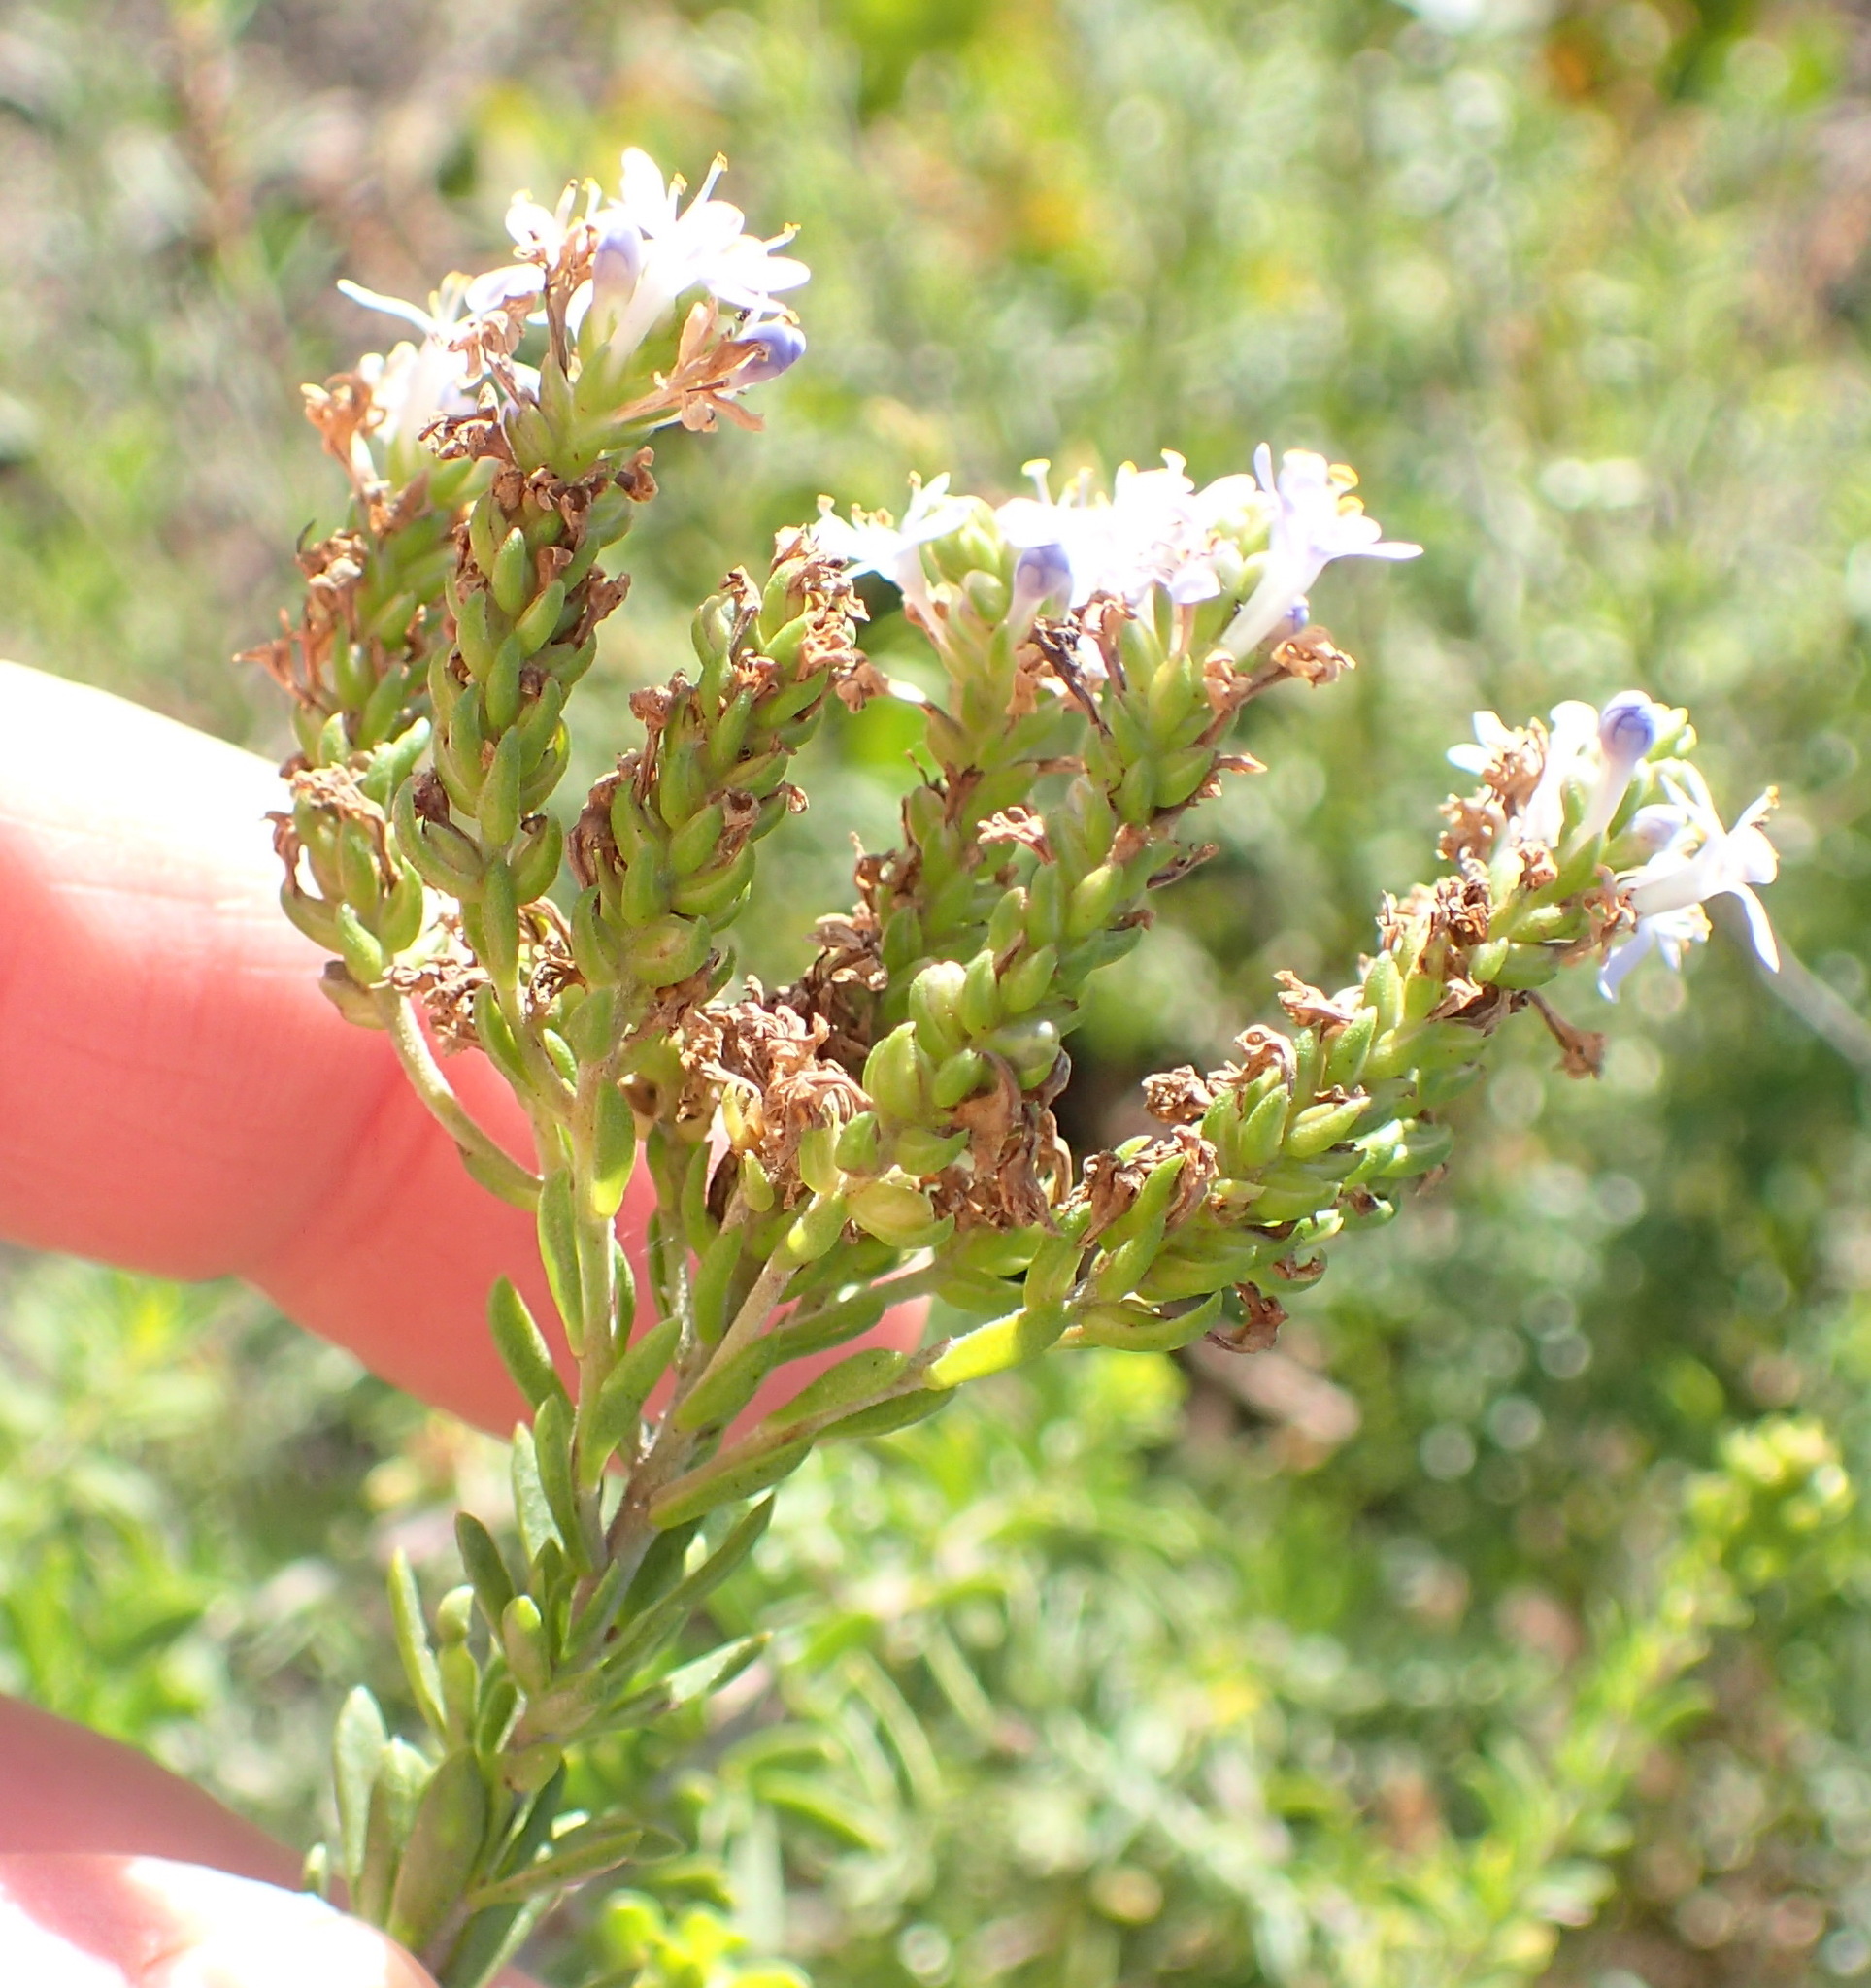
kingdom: Plantae
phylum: Tracheophyta
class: Magnoliopsida
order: Lamiales
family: Scrophulariaceae
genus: Selago
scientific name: Selago cinerea
